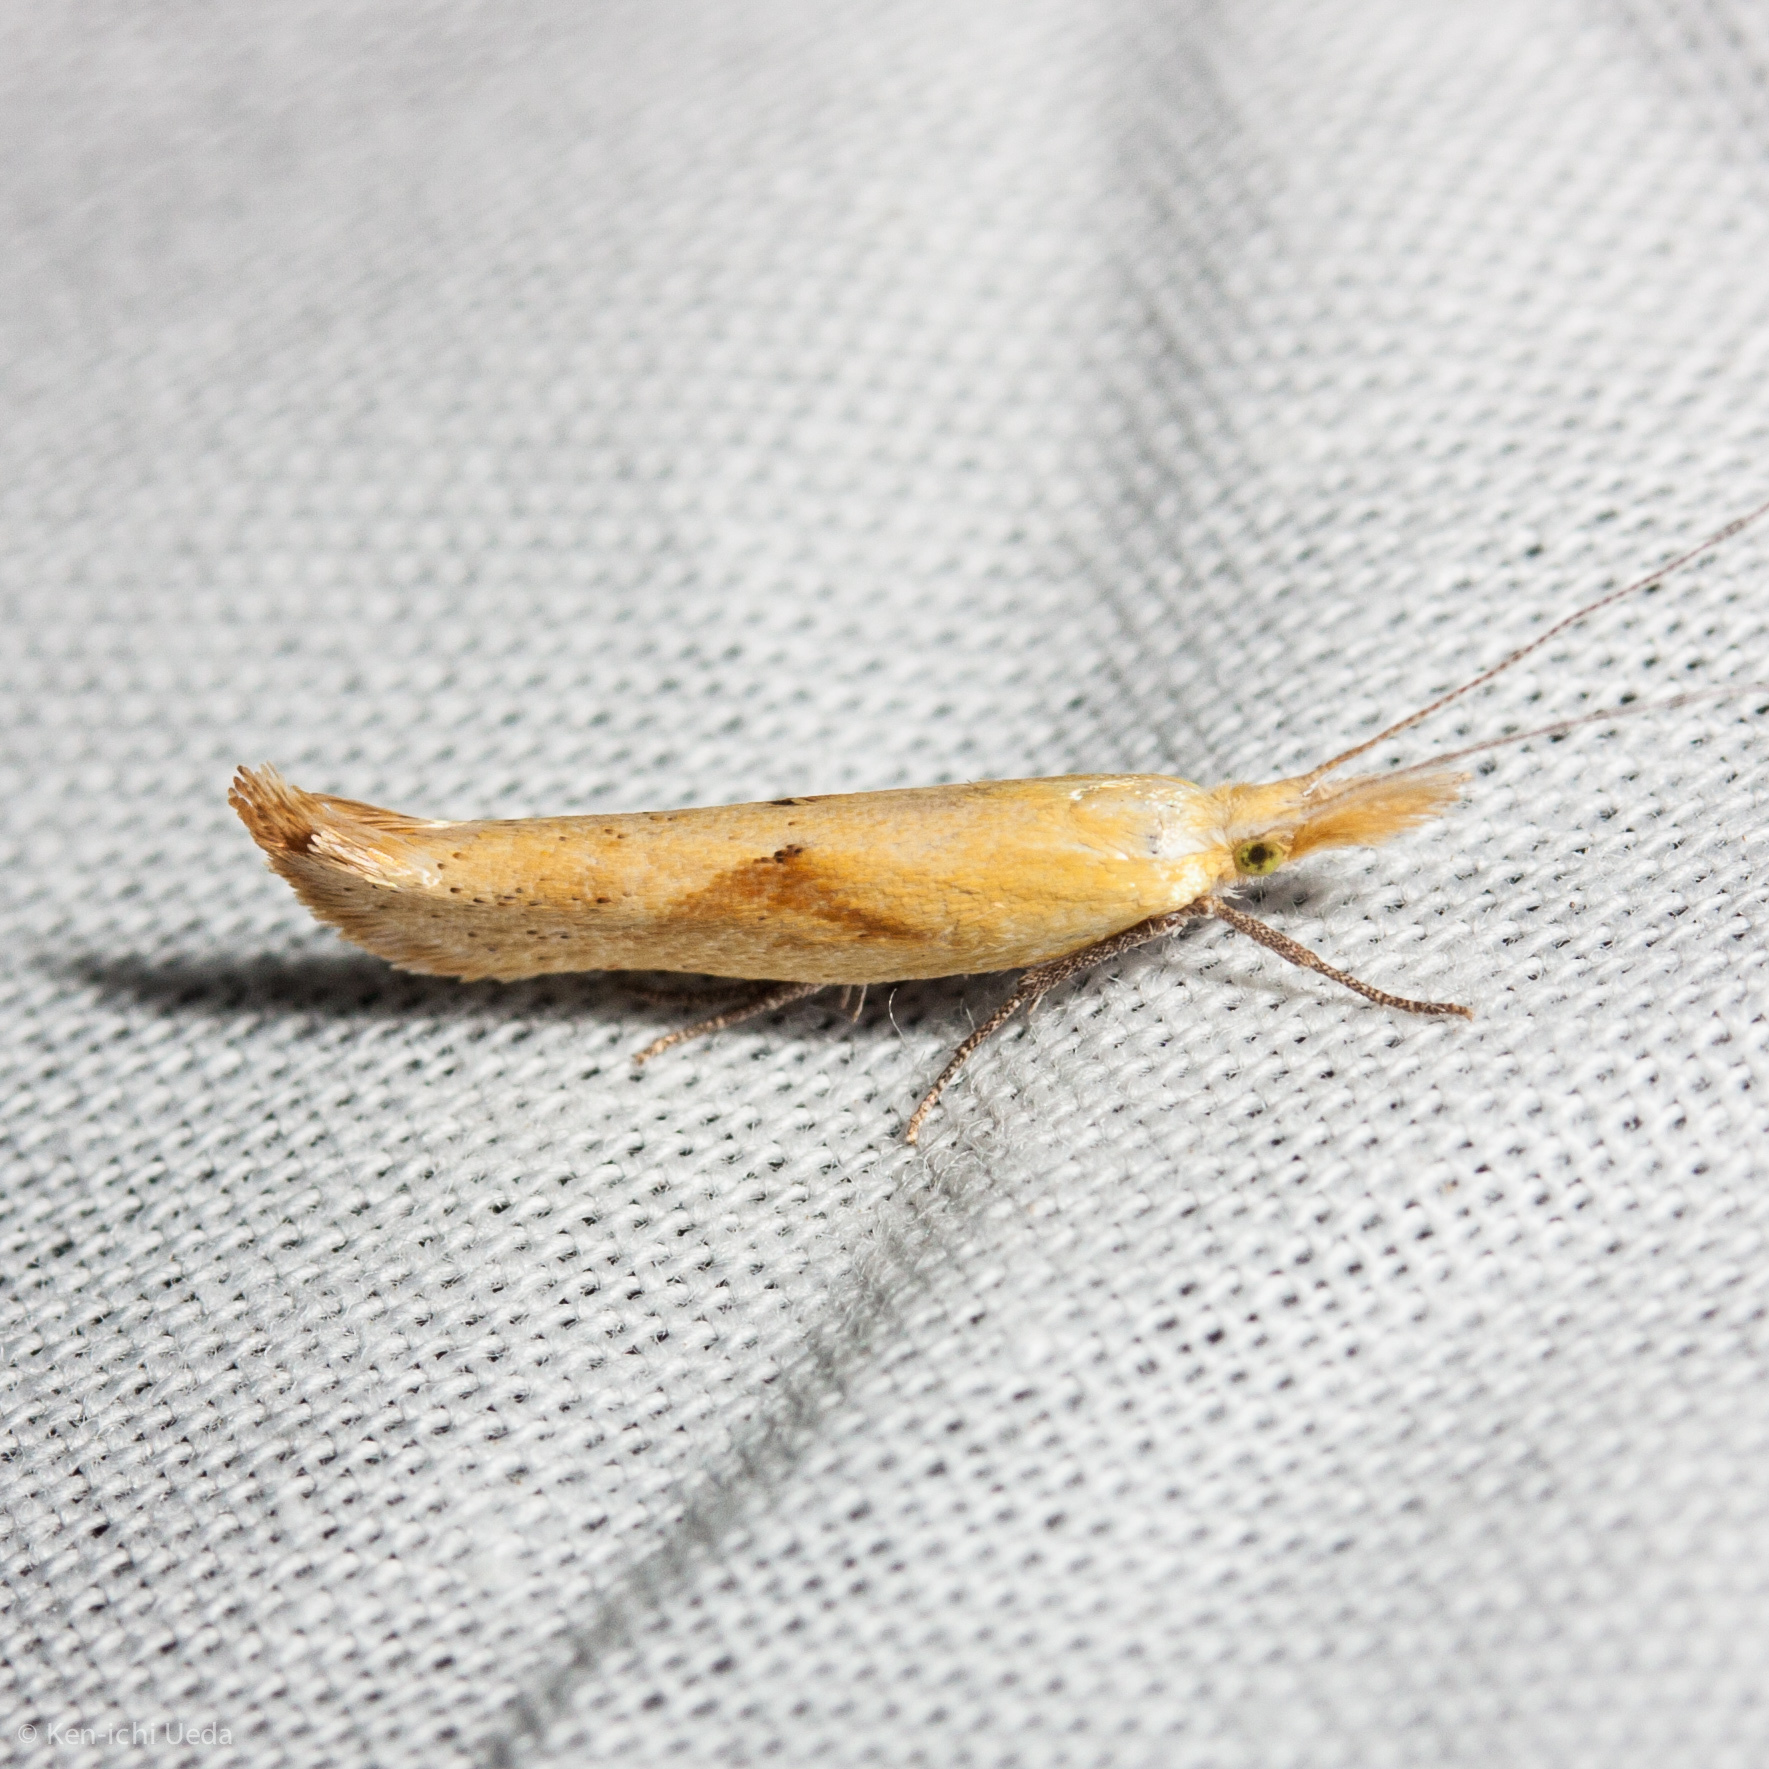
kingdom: Animalia
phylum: Arthropoda
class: Insecta
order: Lepidoptera
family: Ypsolophidae
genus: Ypsolopha
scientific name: Ypsolopha canariella
